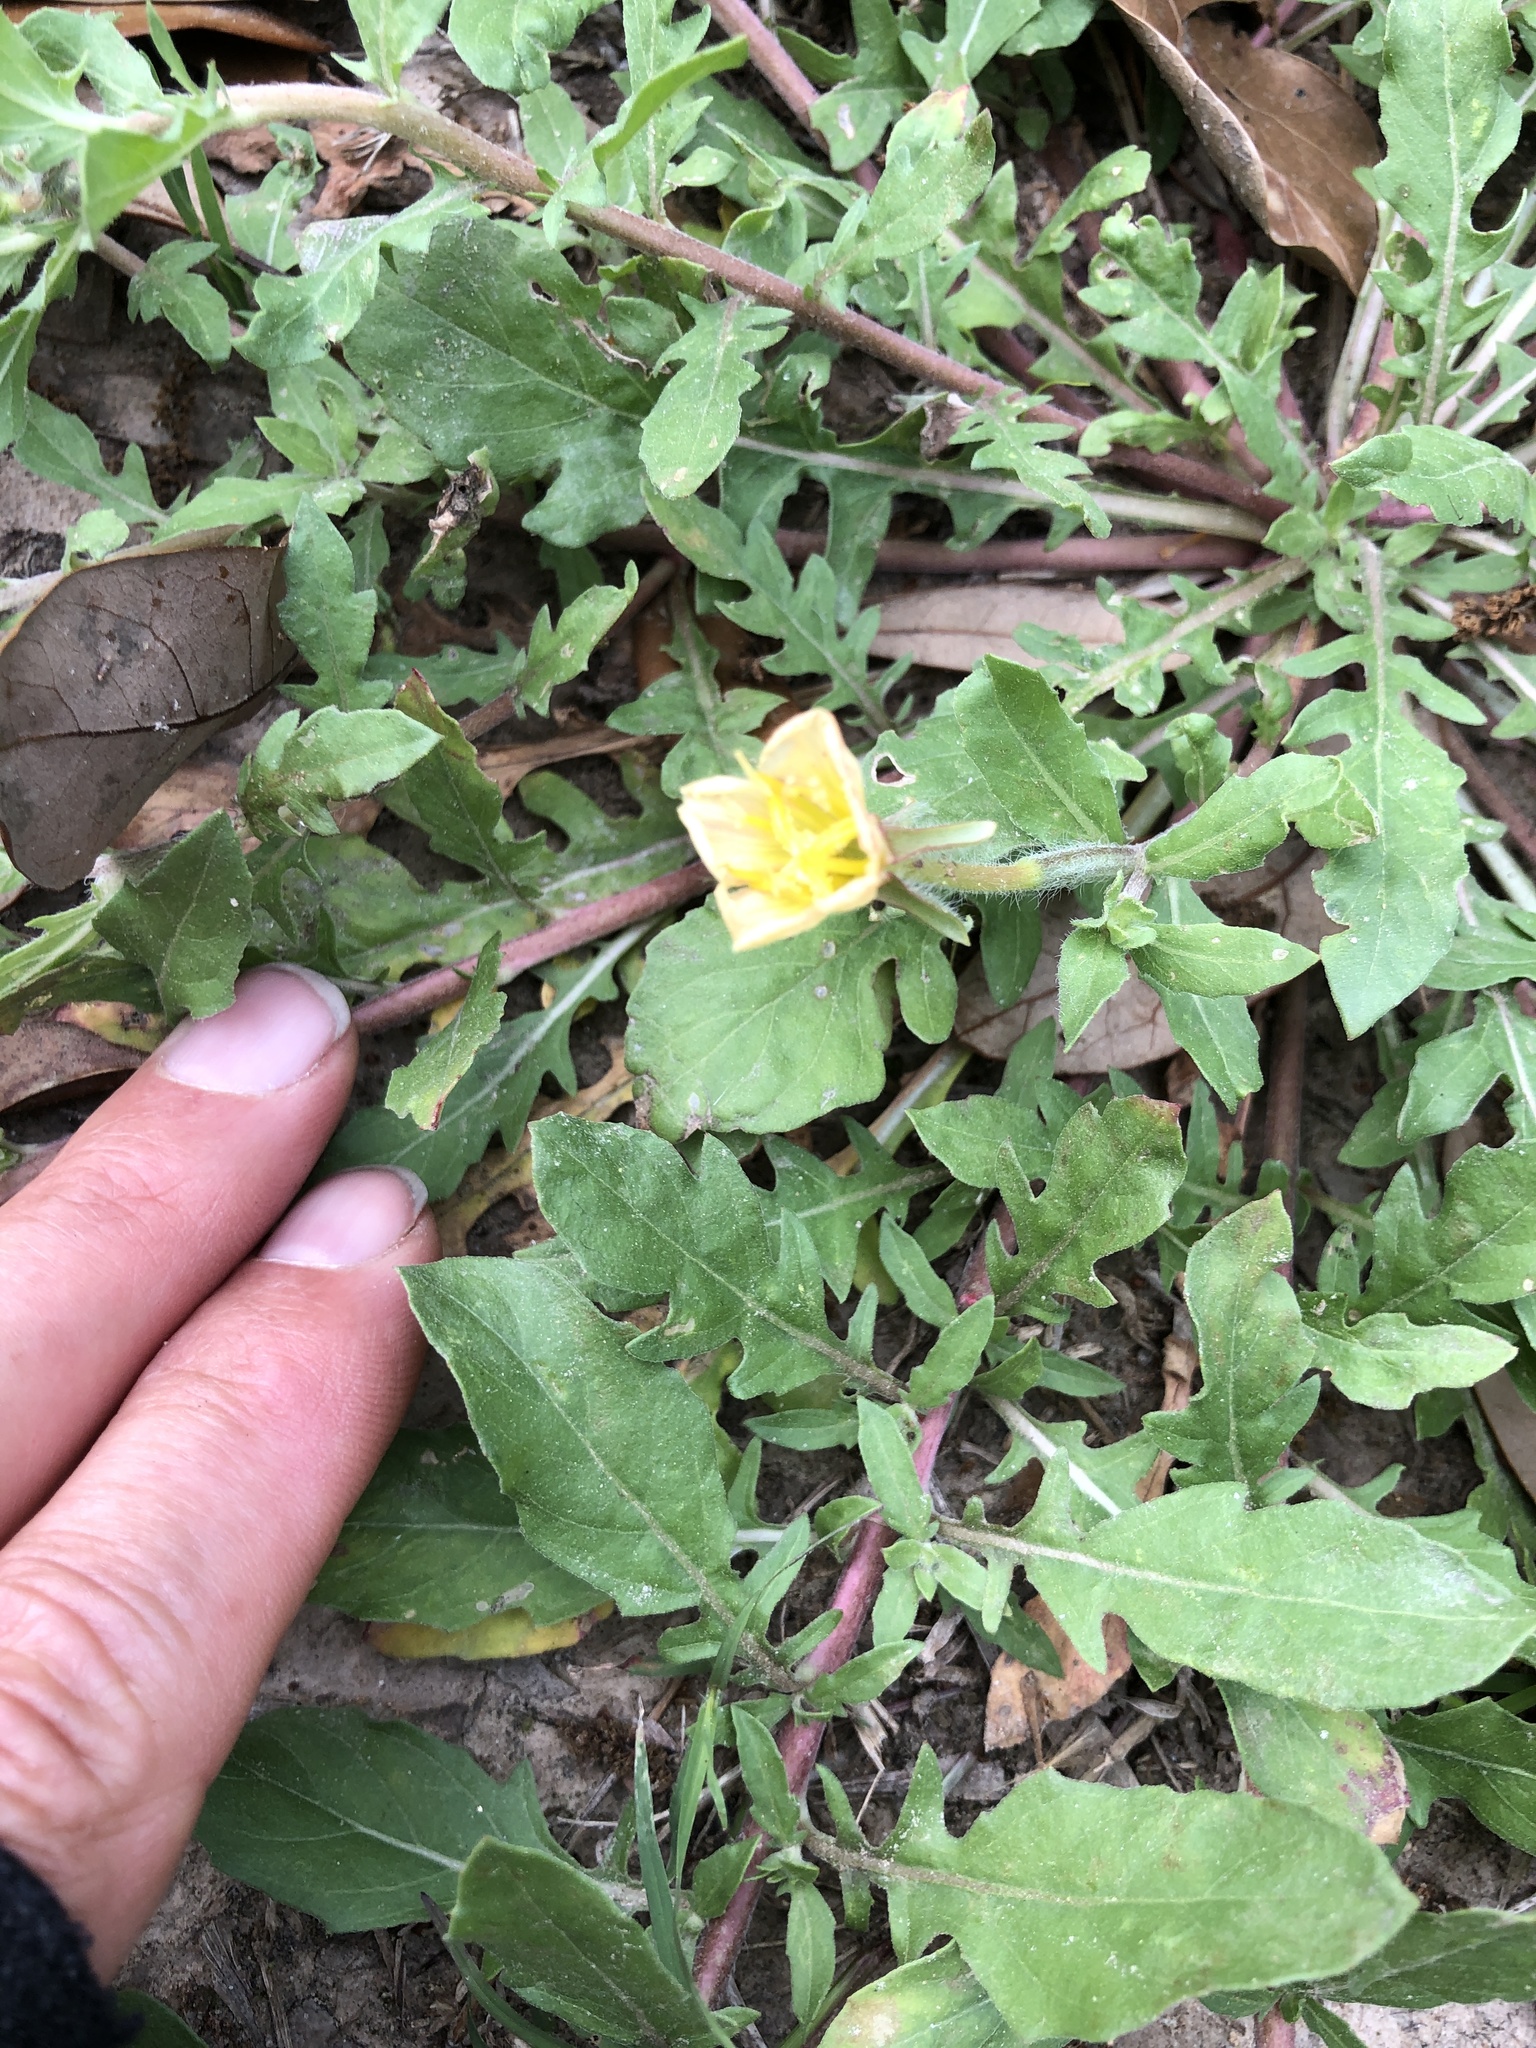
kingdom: Plantae
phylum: Tracheophyta
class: Magnoliopsida
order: Myrtales
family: Onagraceae
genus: Oenothera
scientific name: Oenothera laciniata
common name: Cut-leaved evening-primrose
